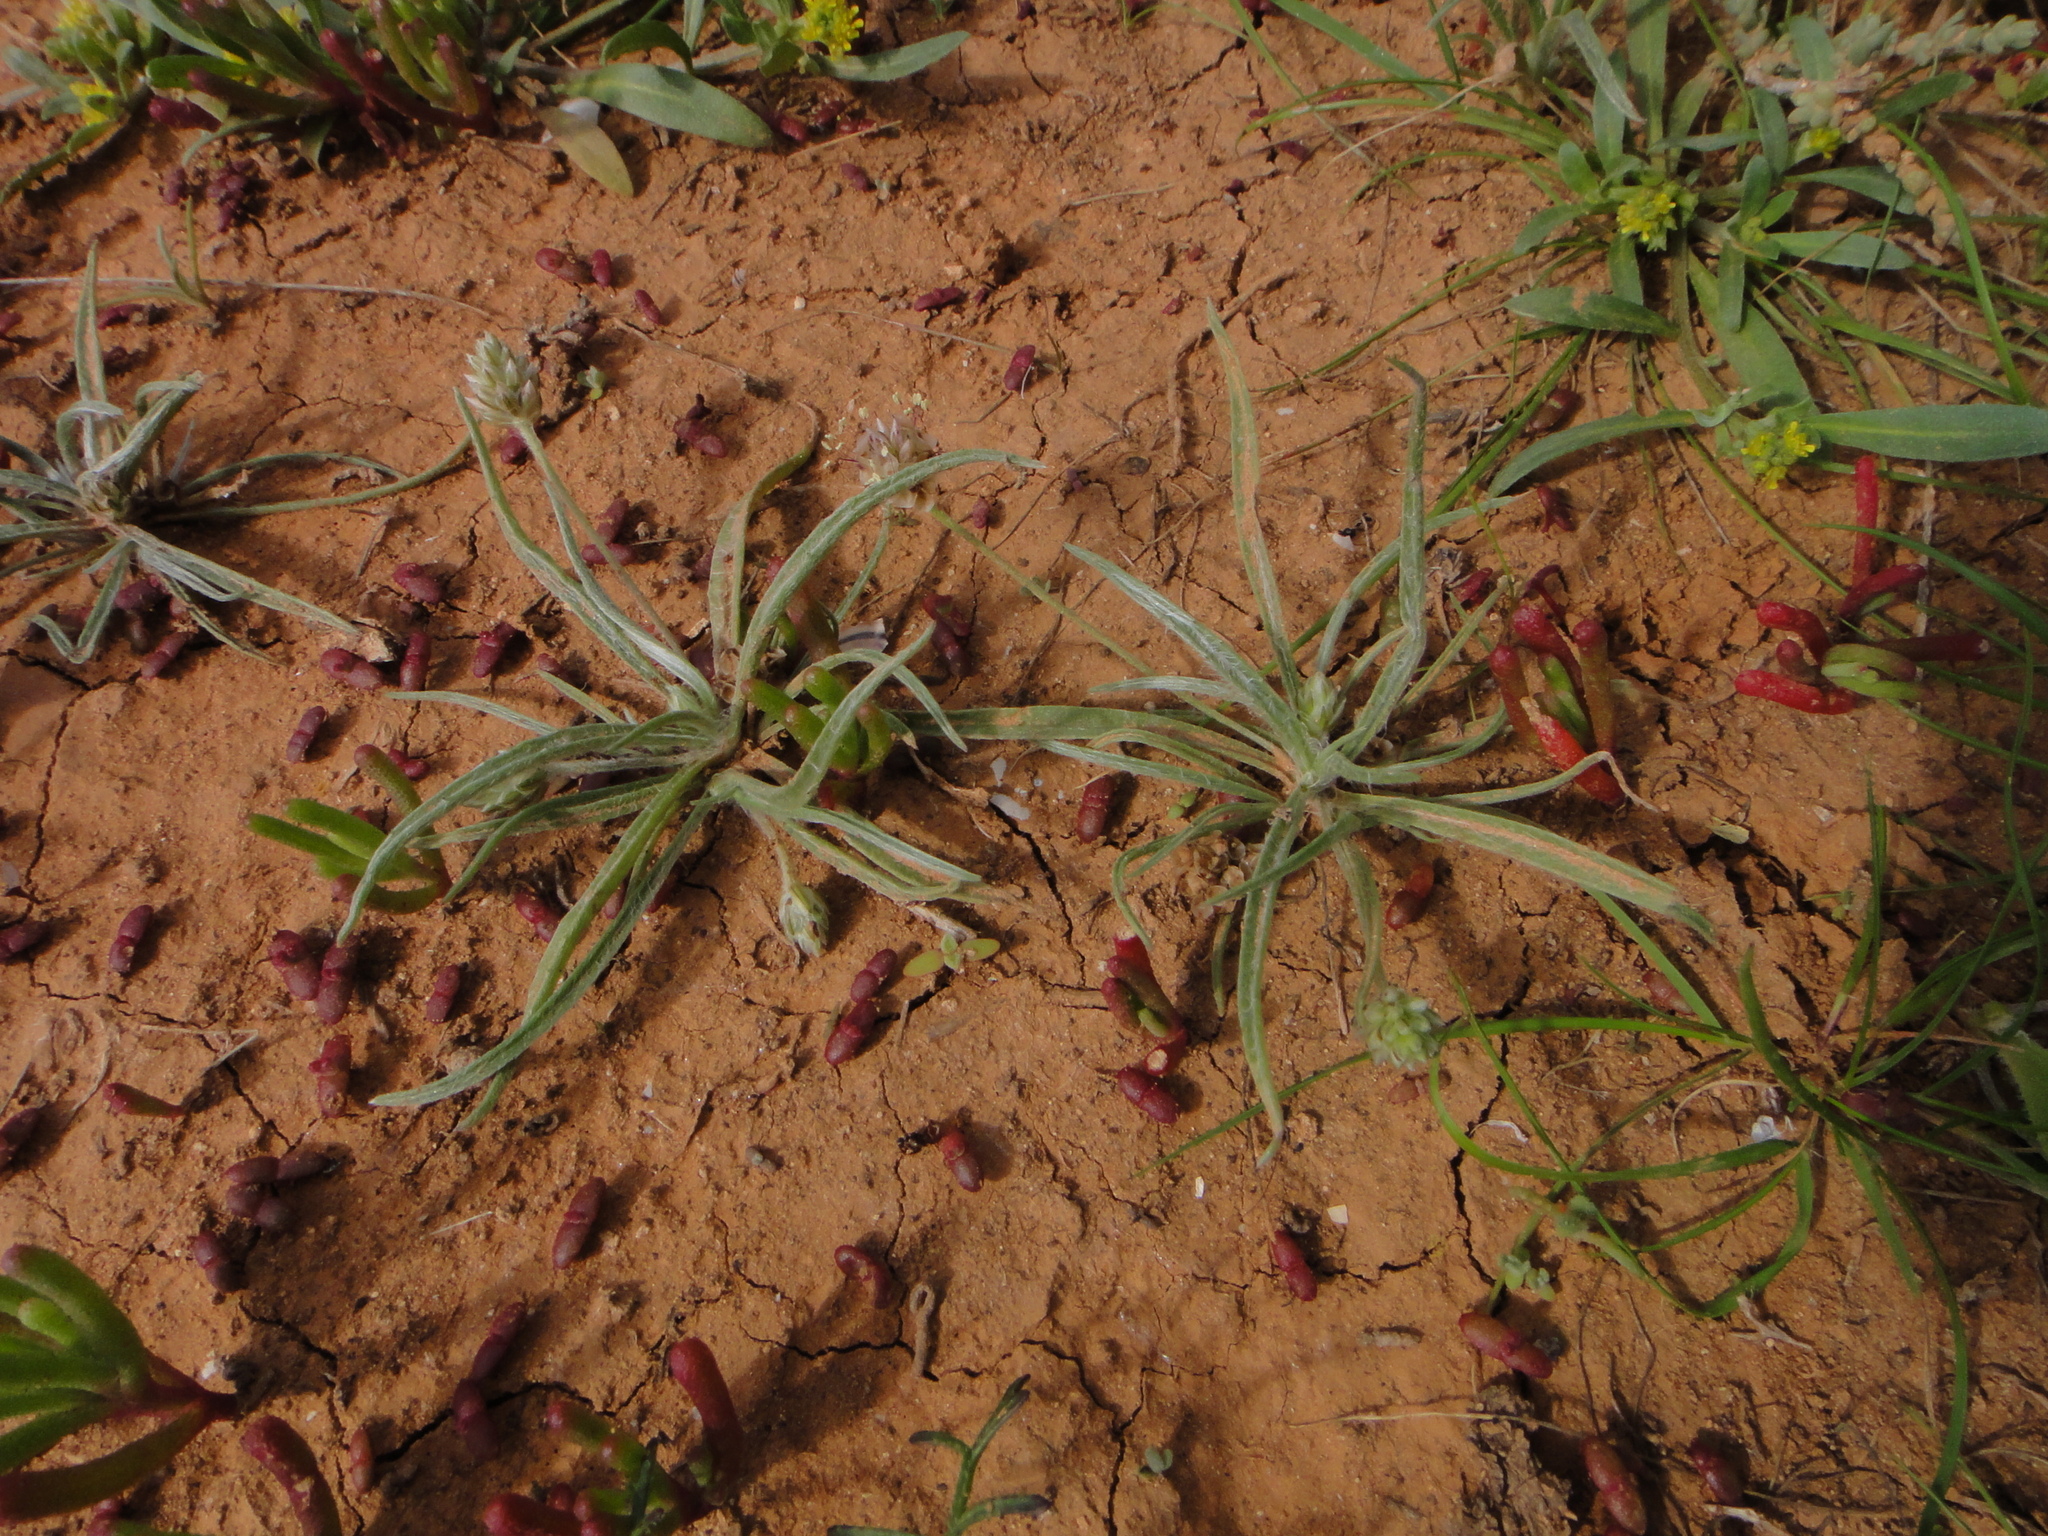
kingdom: Plantae
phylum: Tracheophyta
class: Magnoliopsida
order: Lamiales
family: Plantaginaceae
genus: Plantago
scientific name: Plantago ovata
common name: Blond plantain
